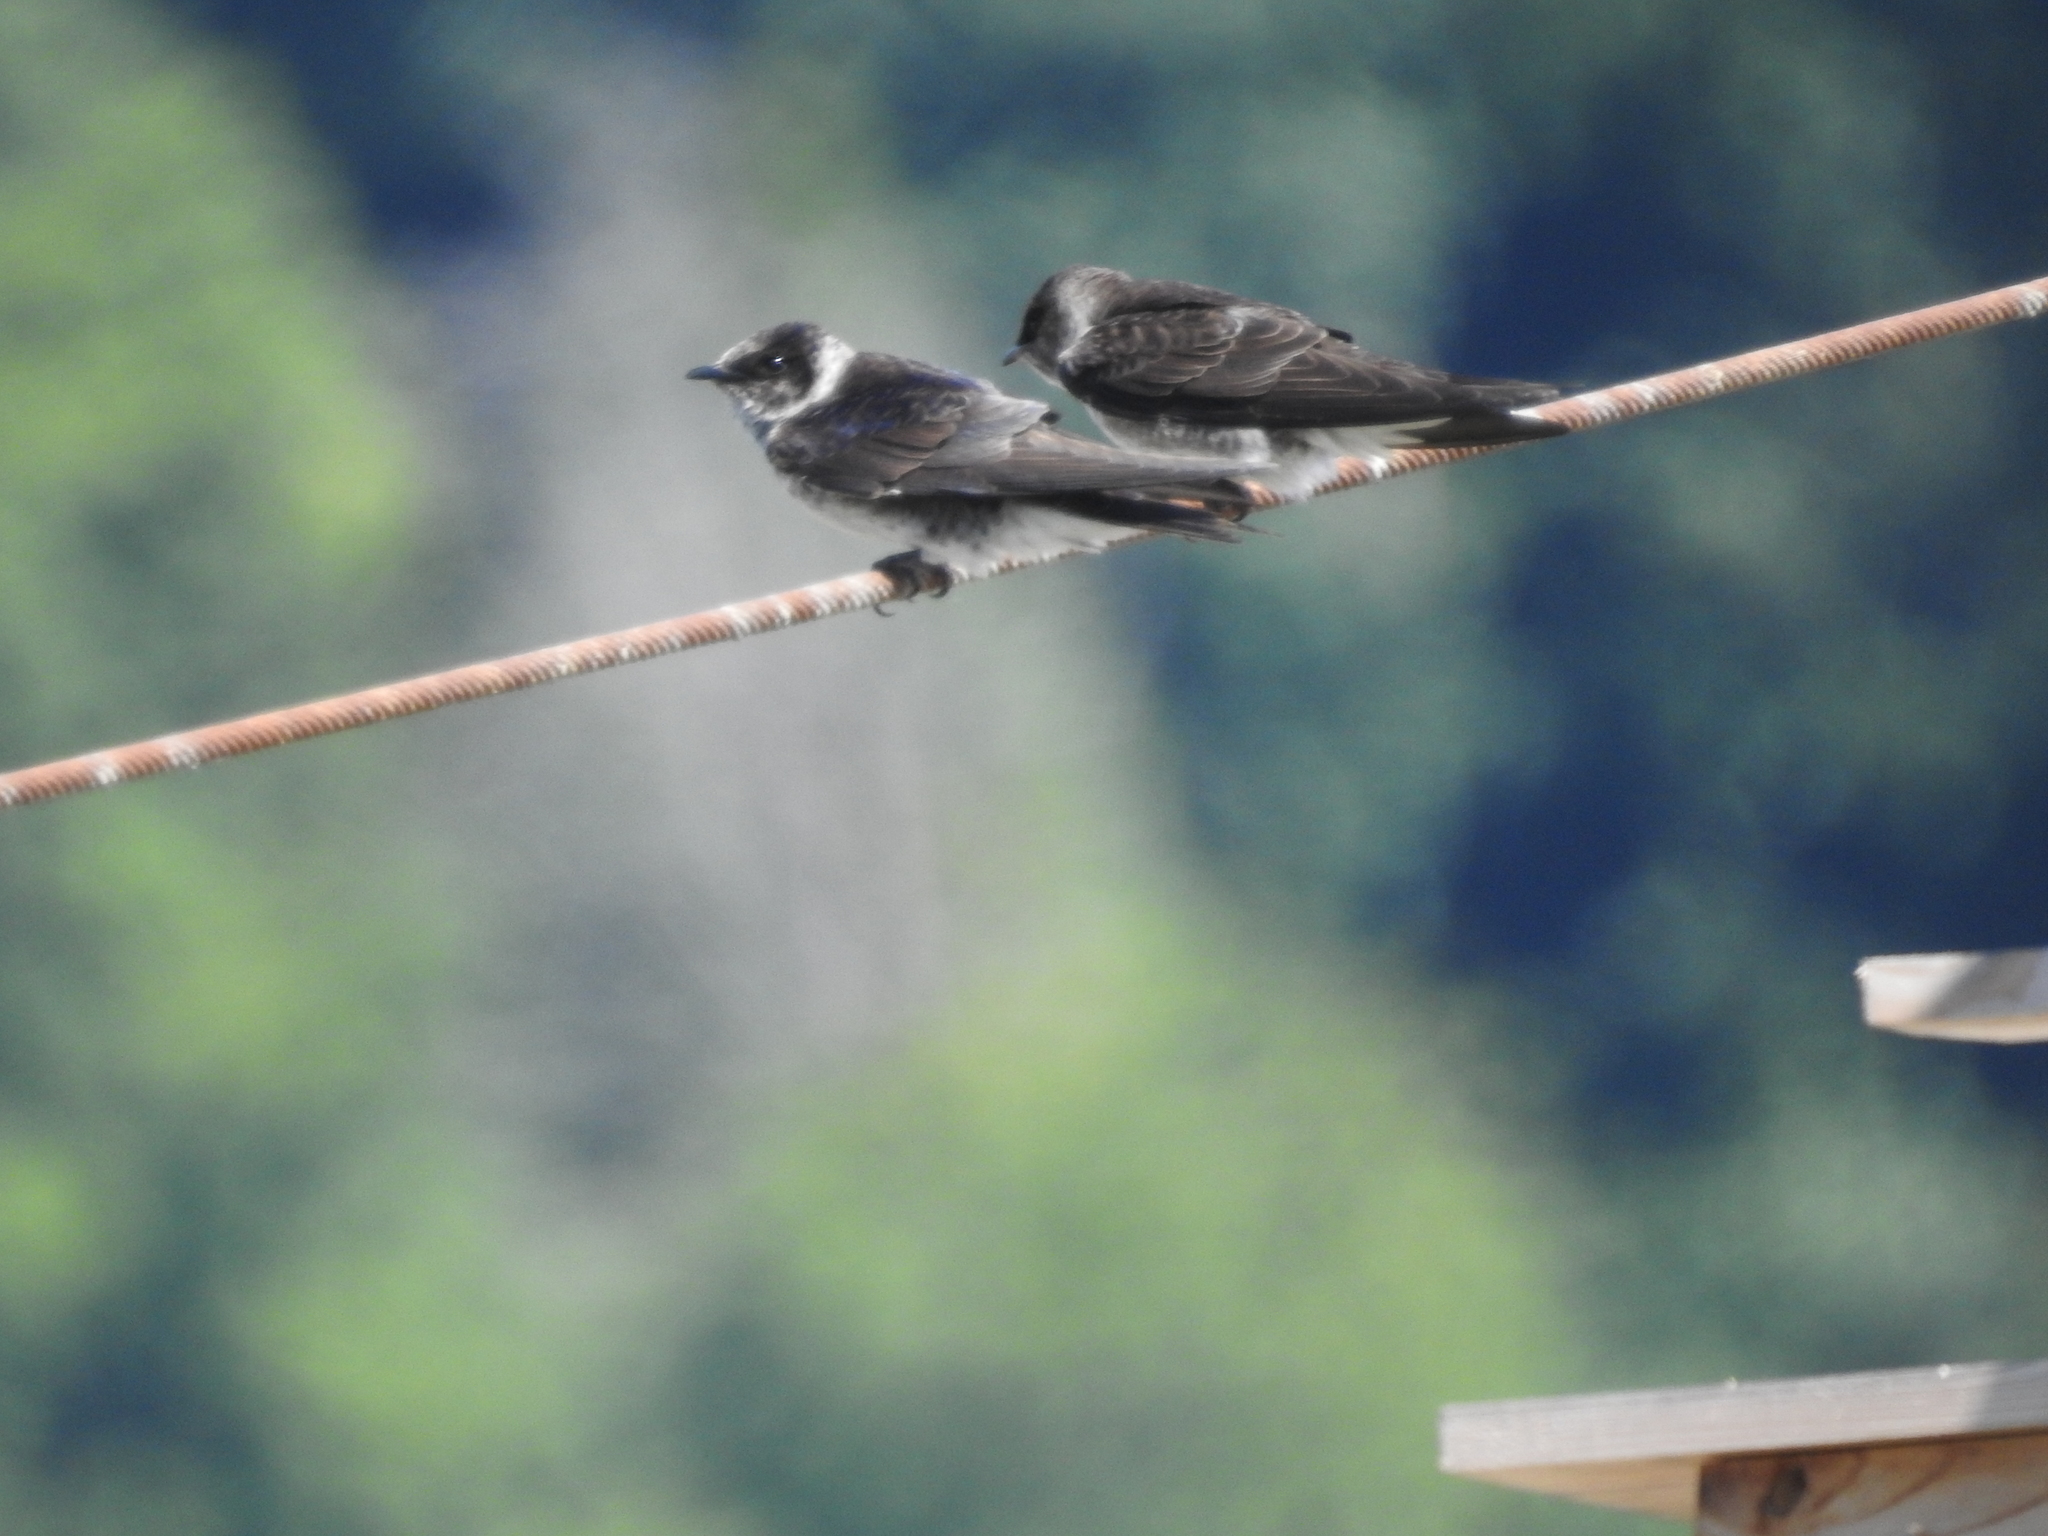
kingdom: Animalia
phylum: Chordata
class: Aves
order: Passeriformes
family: Hirundinidae
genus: Progne
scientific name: Progne subis
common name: Purple martin
